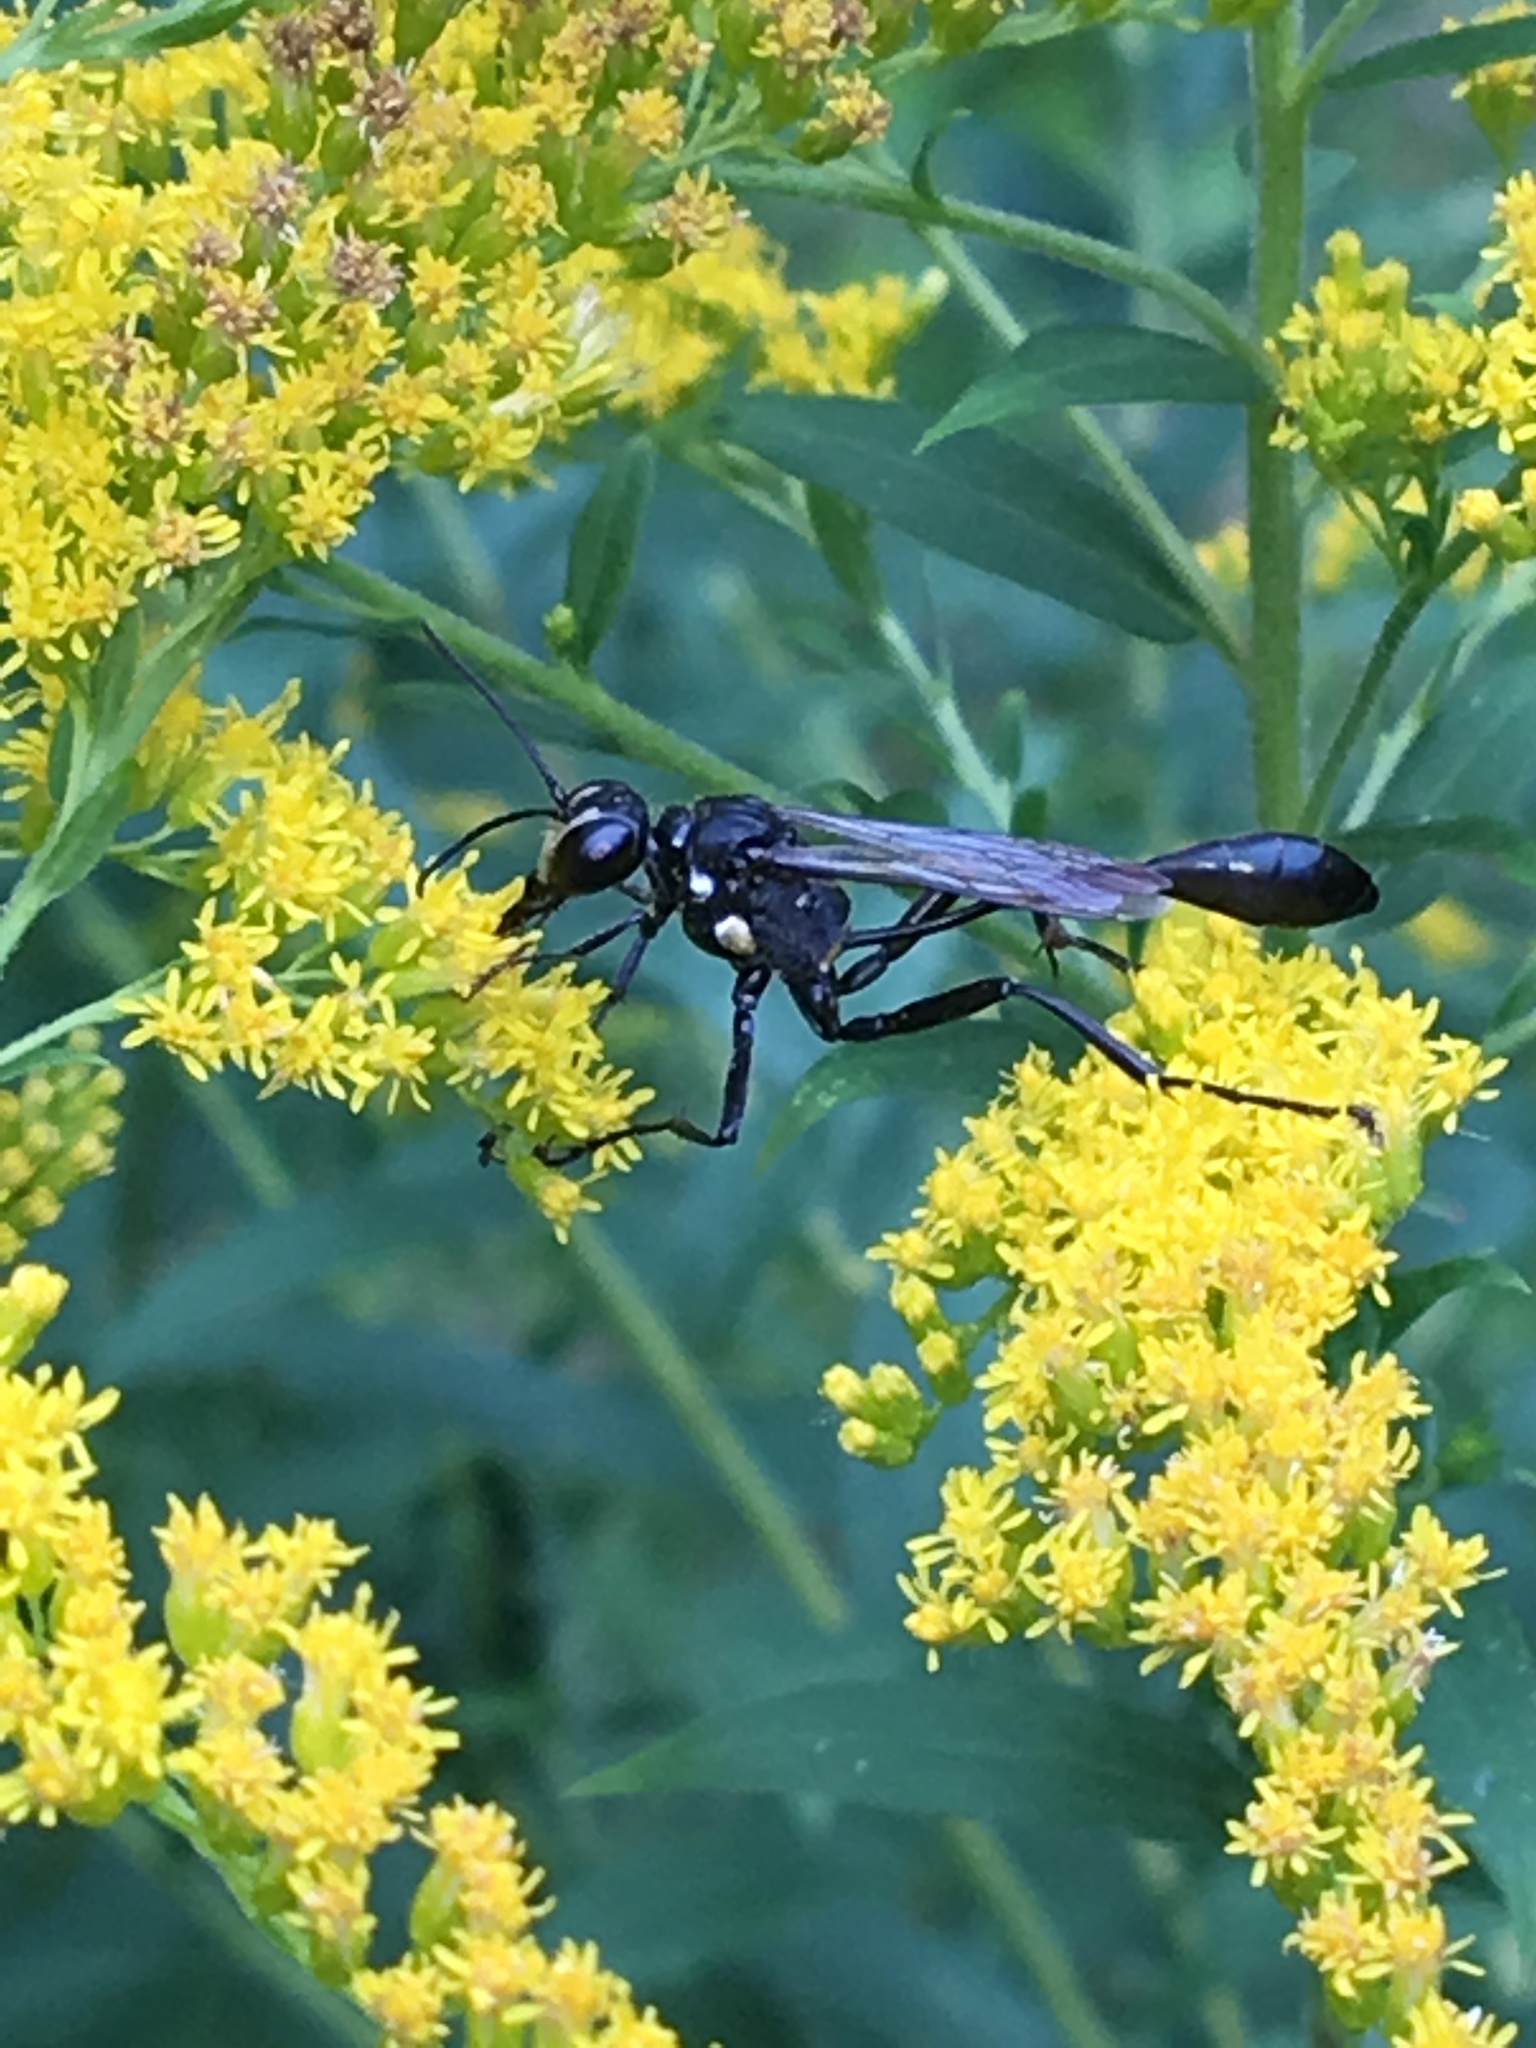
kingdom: Animalia
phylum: Arthropoda
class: Insecta
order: Hymenoptera
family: Sphecidae
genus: Eremnophila
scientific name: Eremnophila aureonotata
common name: Gold-marked thread-waisted wasp
